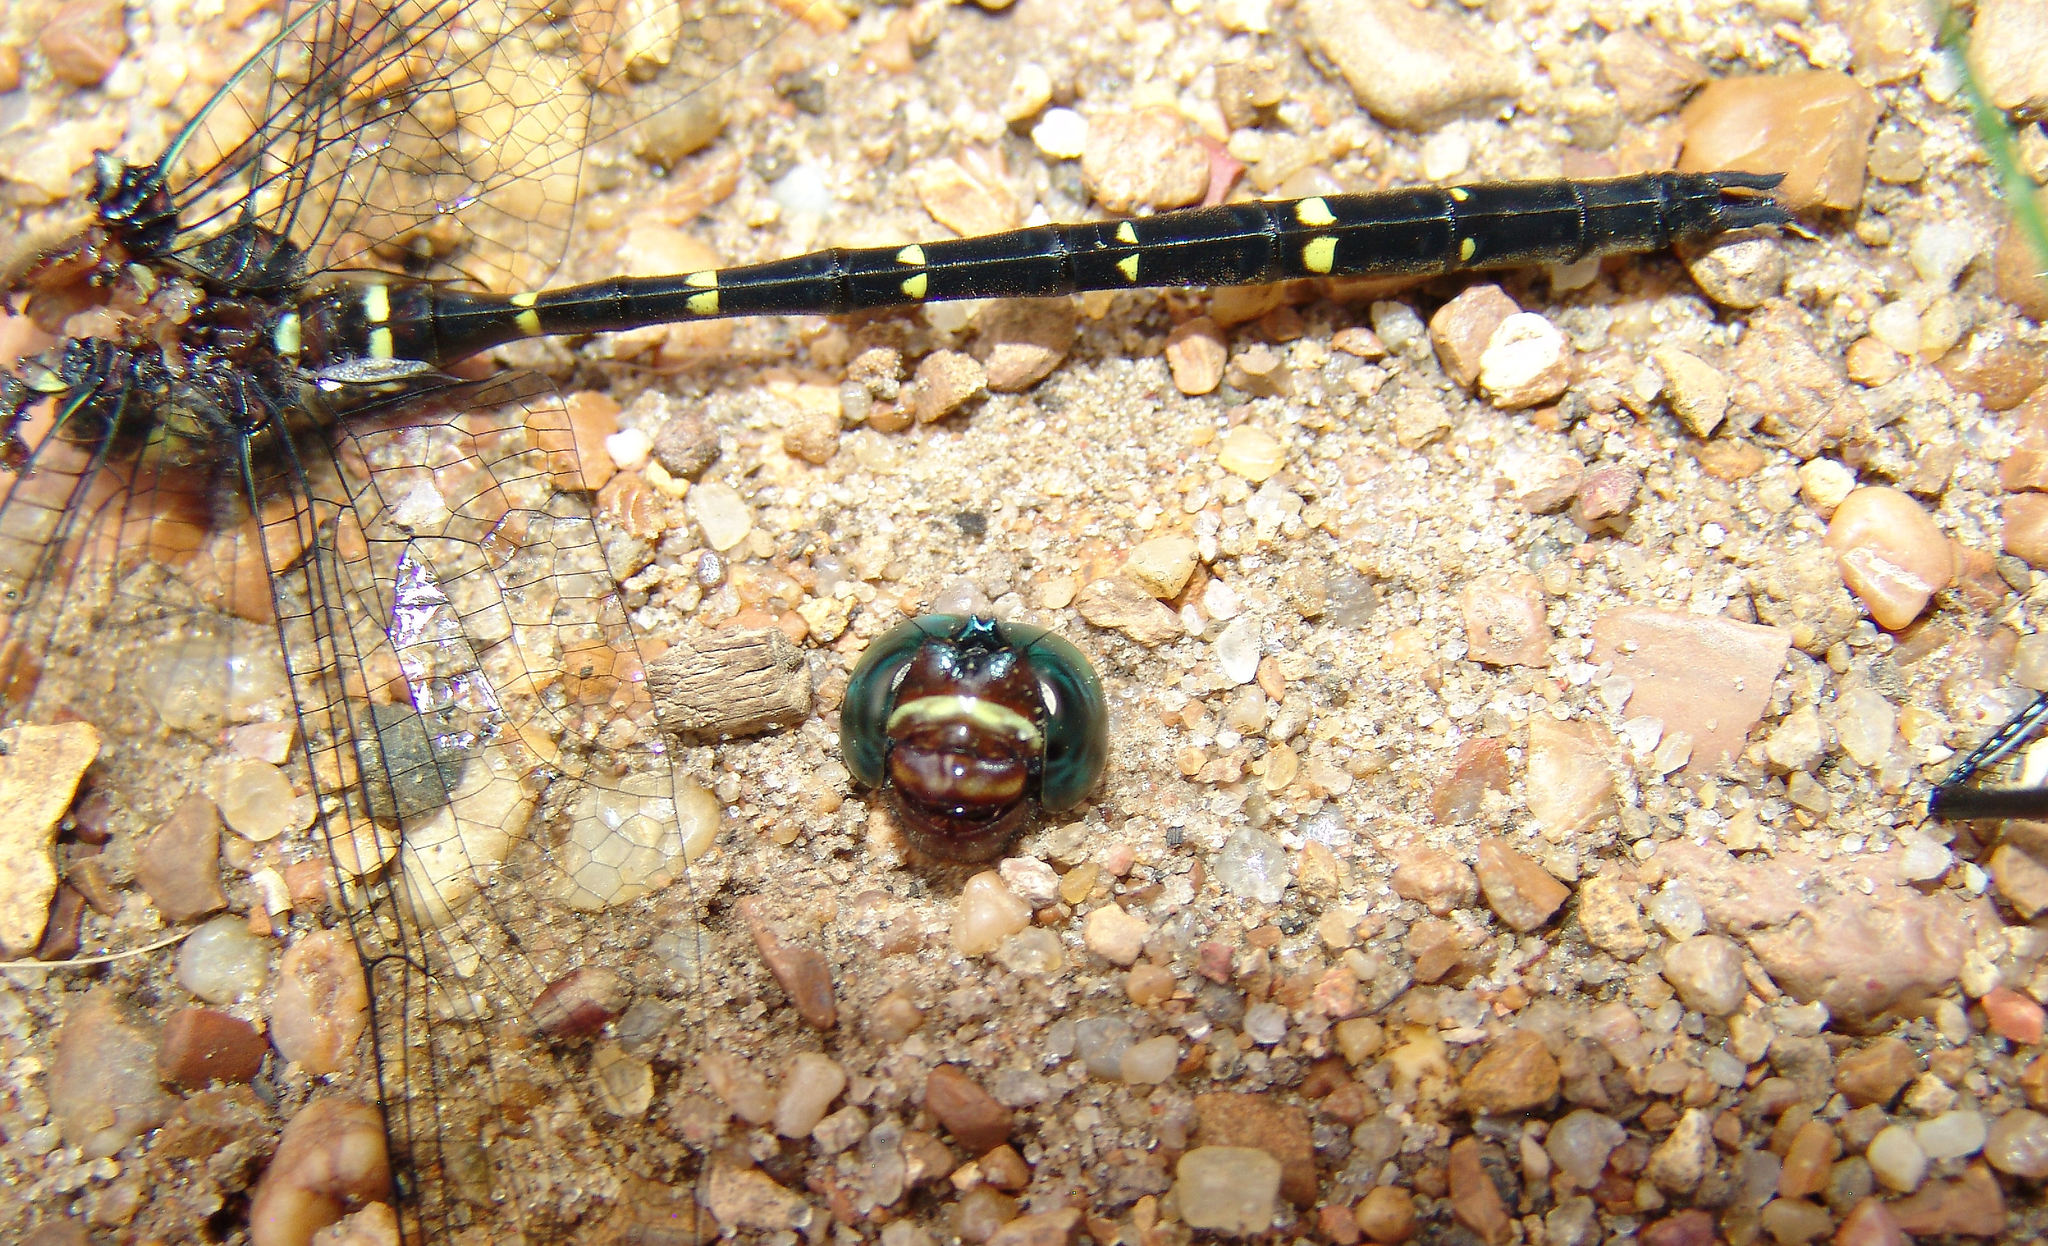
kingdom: Animalia
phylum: Arthropoda
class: Insecta
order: Odonata
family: Macromiidae
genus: Macromia
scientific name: Macromia taeniolata
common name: Royal river cruiser
